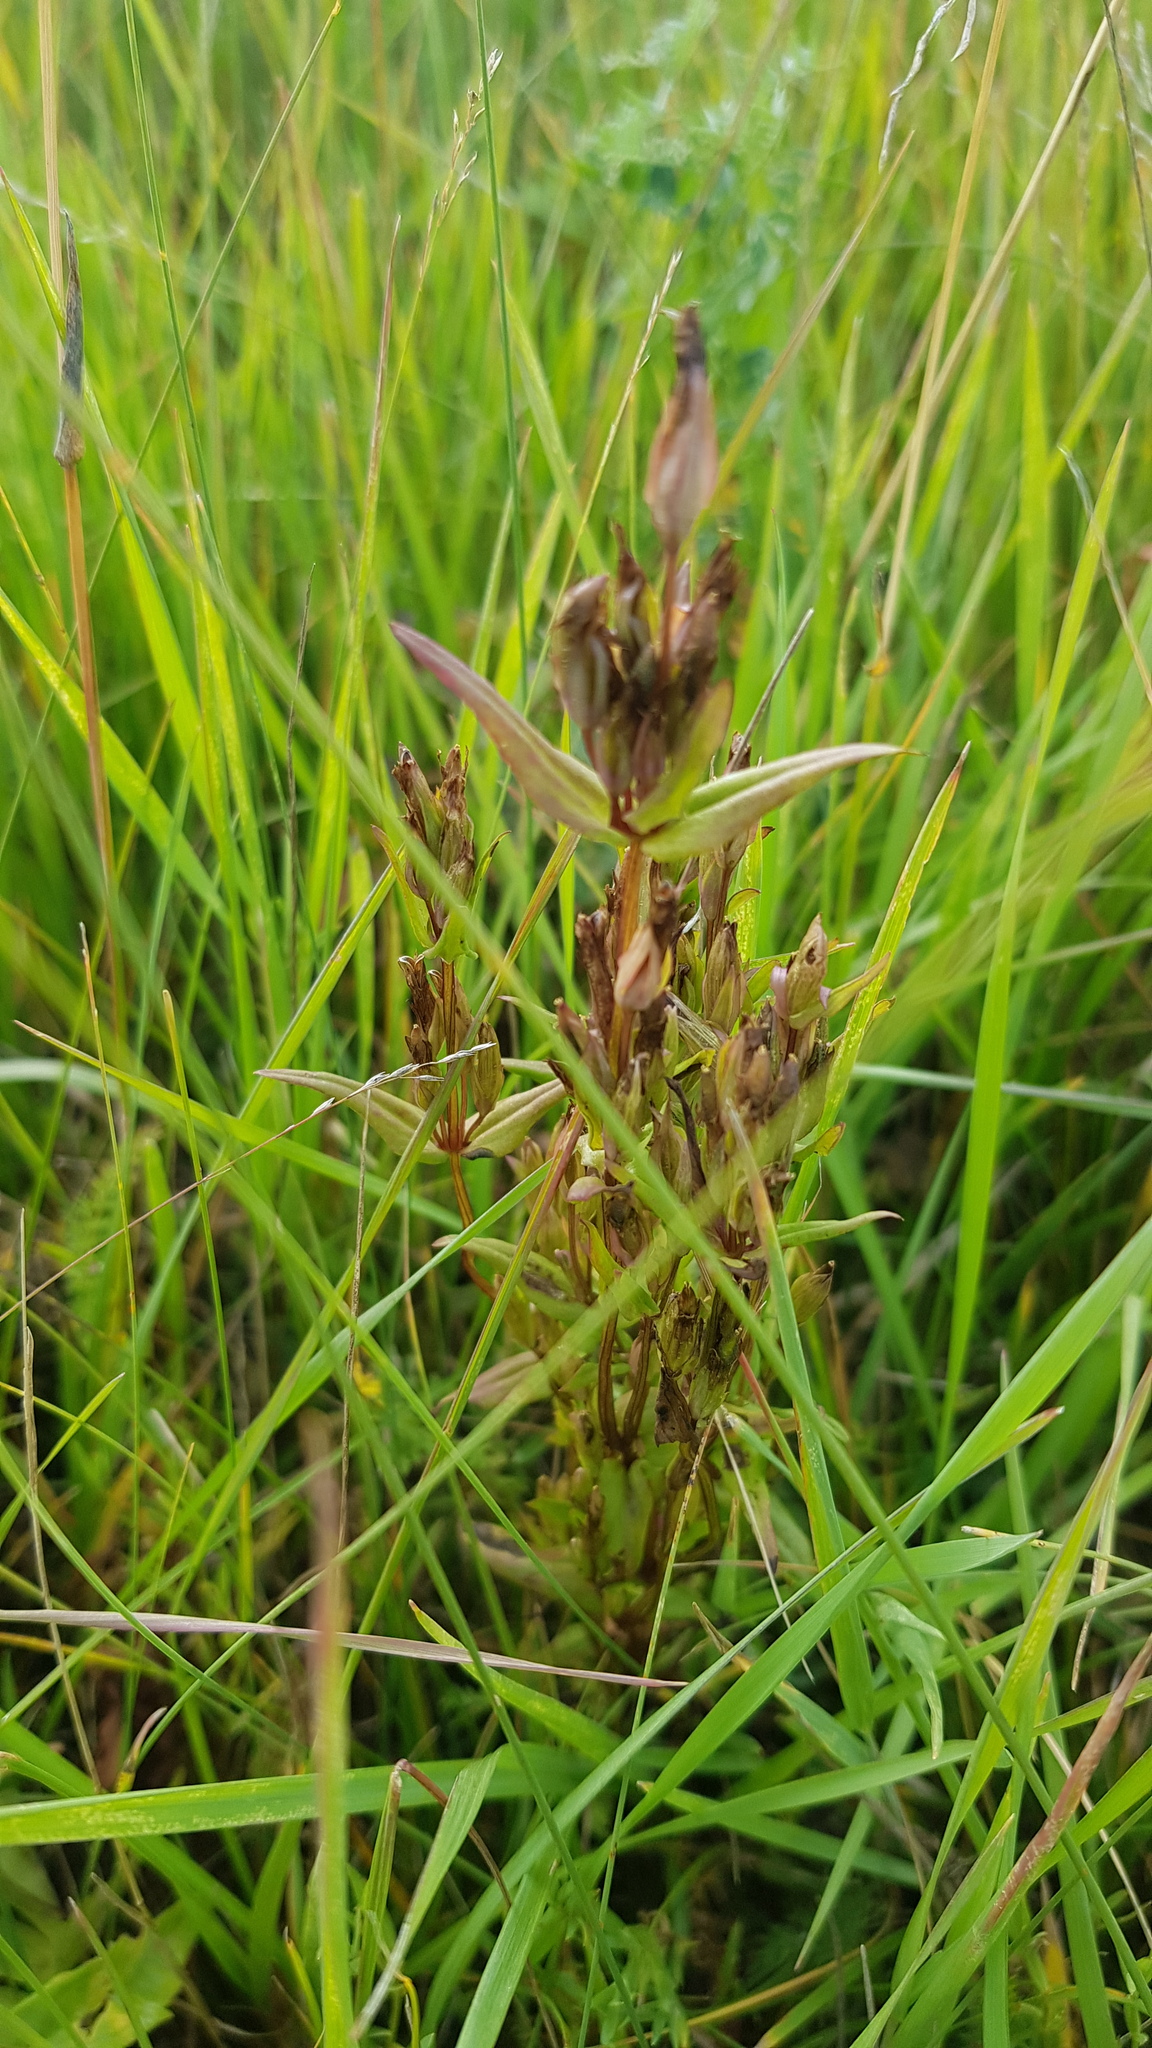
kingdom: Plantae
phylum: Tracheophyta
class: Magnoliopsida
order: Gentianales
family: Gentianaceae
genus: Gentianella
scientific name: Gentianella amarella
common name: Autumn gentian
